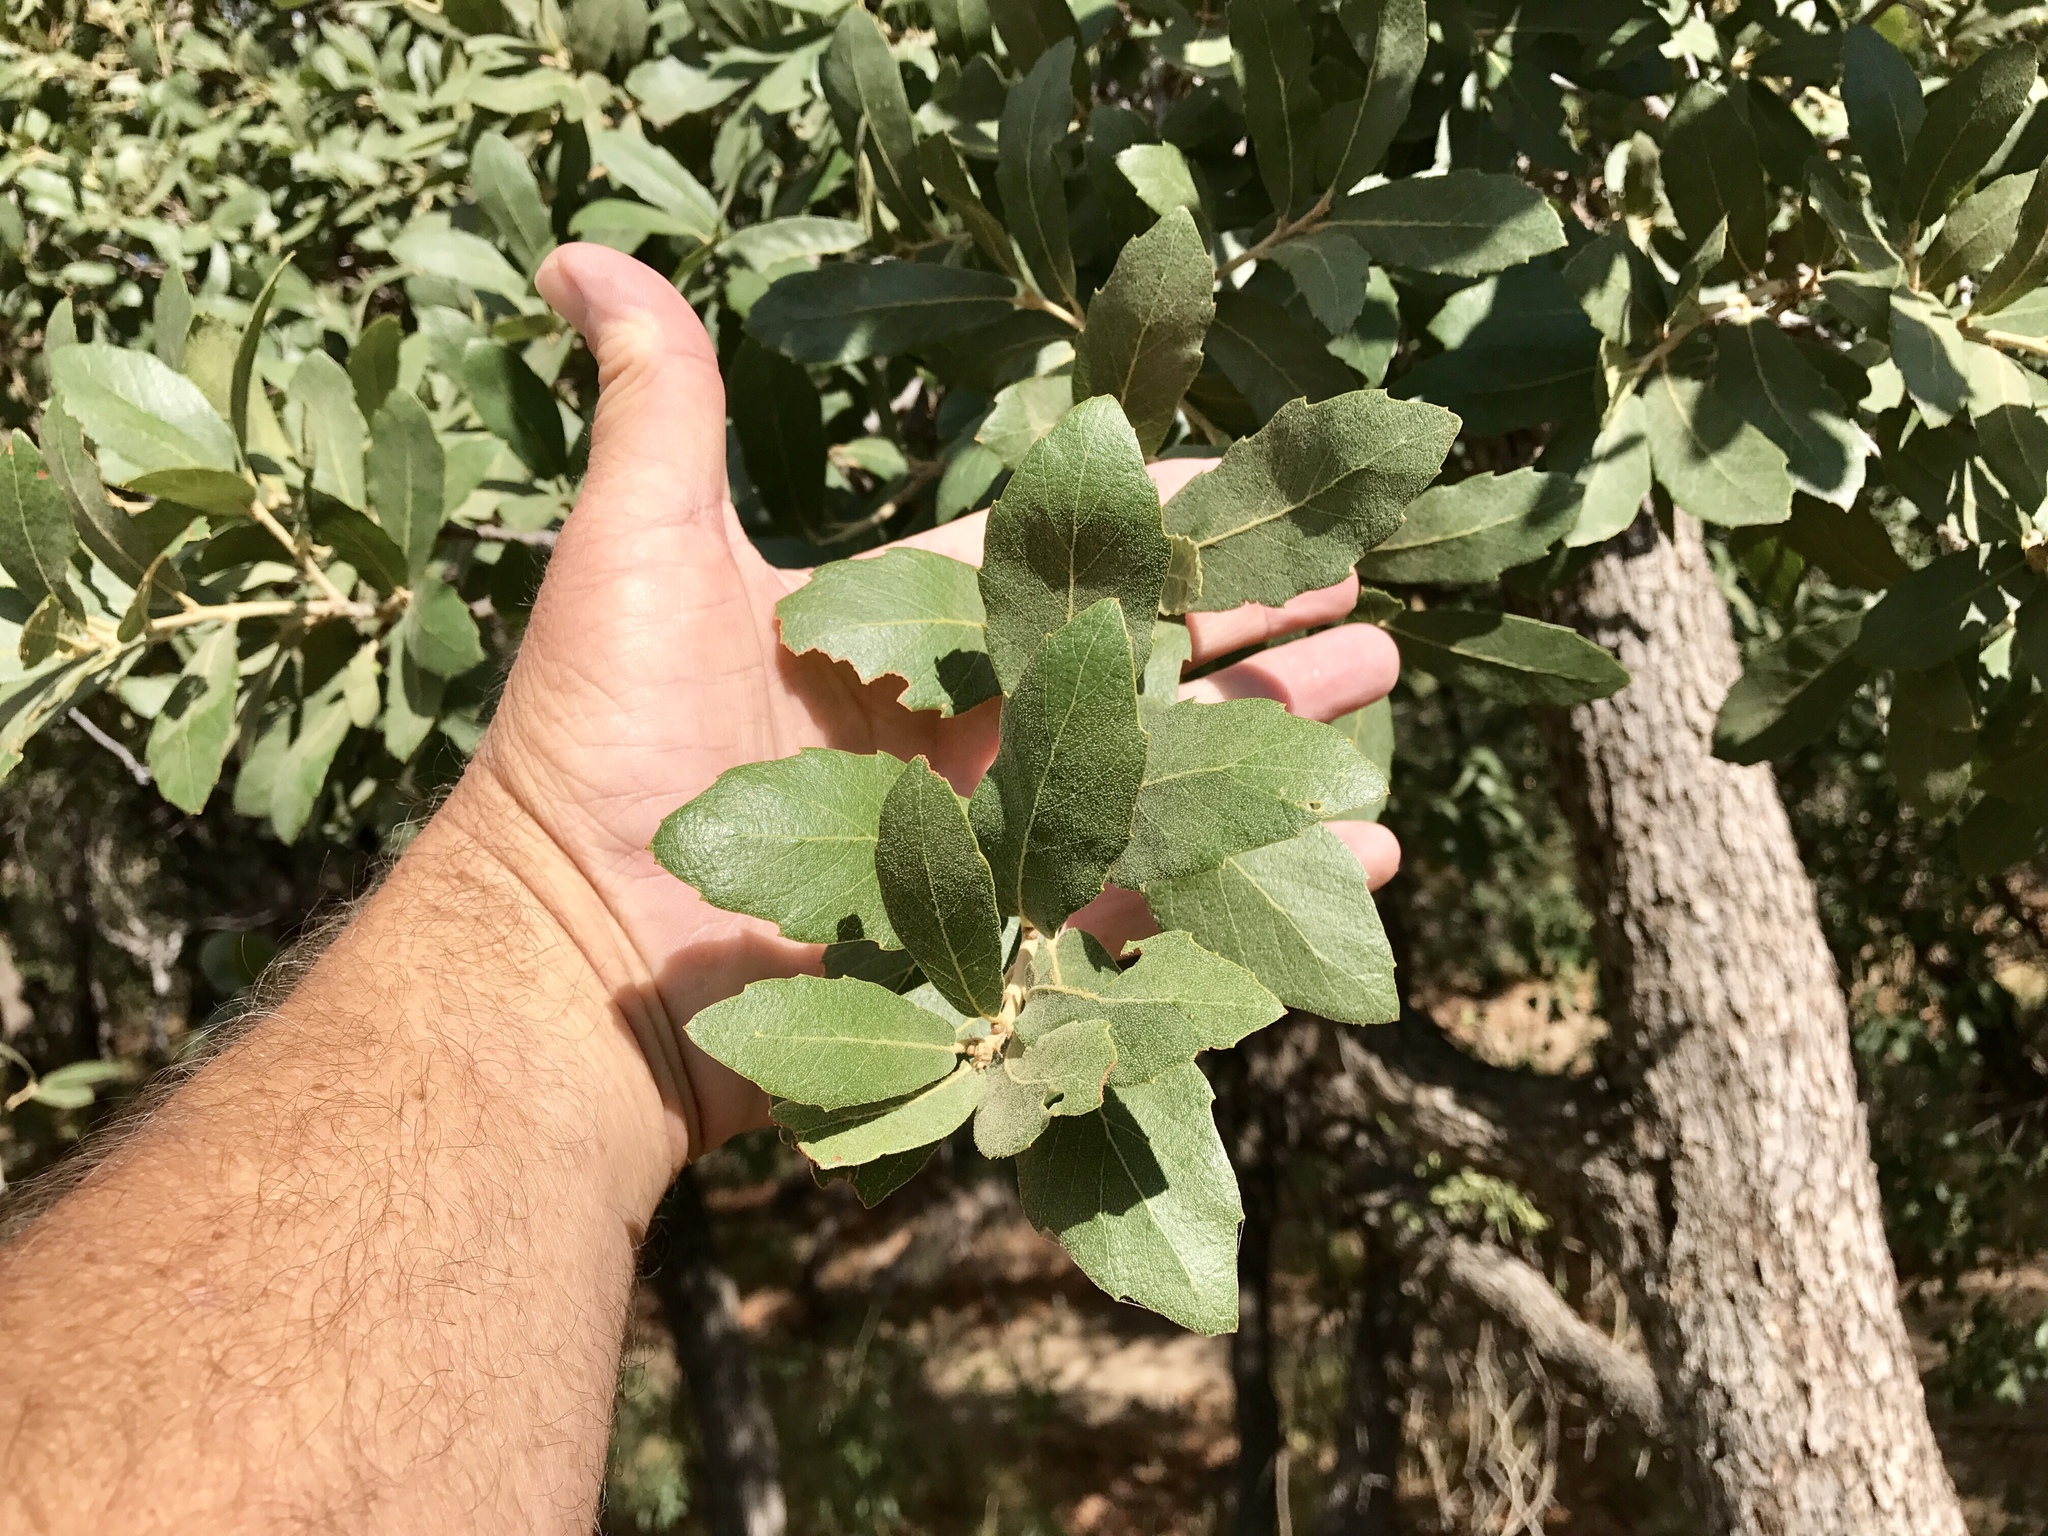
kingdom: Plantae
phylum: Tracheophyta
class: Magnoliopsida
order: Fagales
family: Fagaceae
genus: Quercus
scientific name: Quercus grisea
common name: Gray oak
